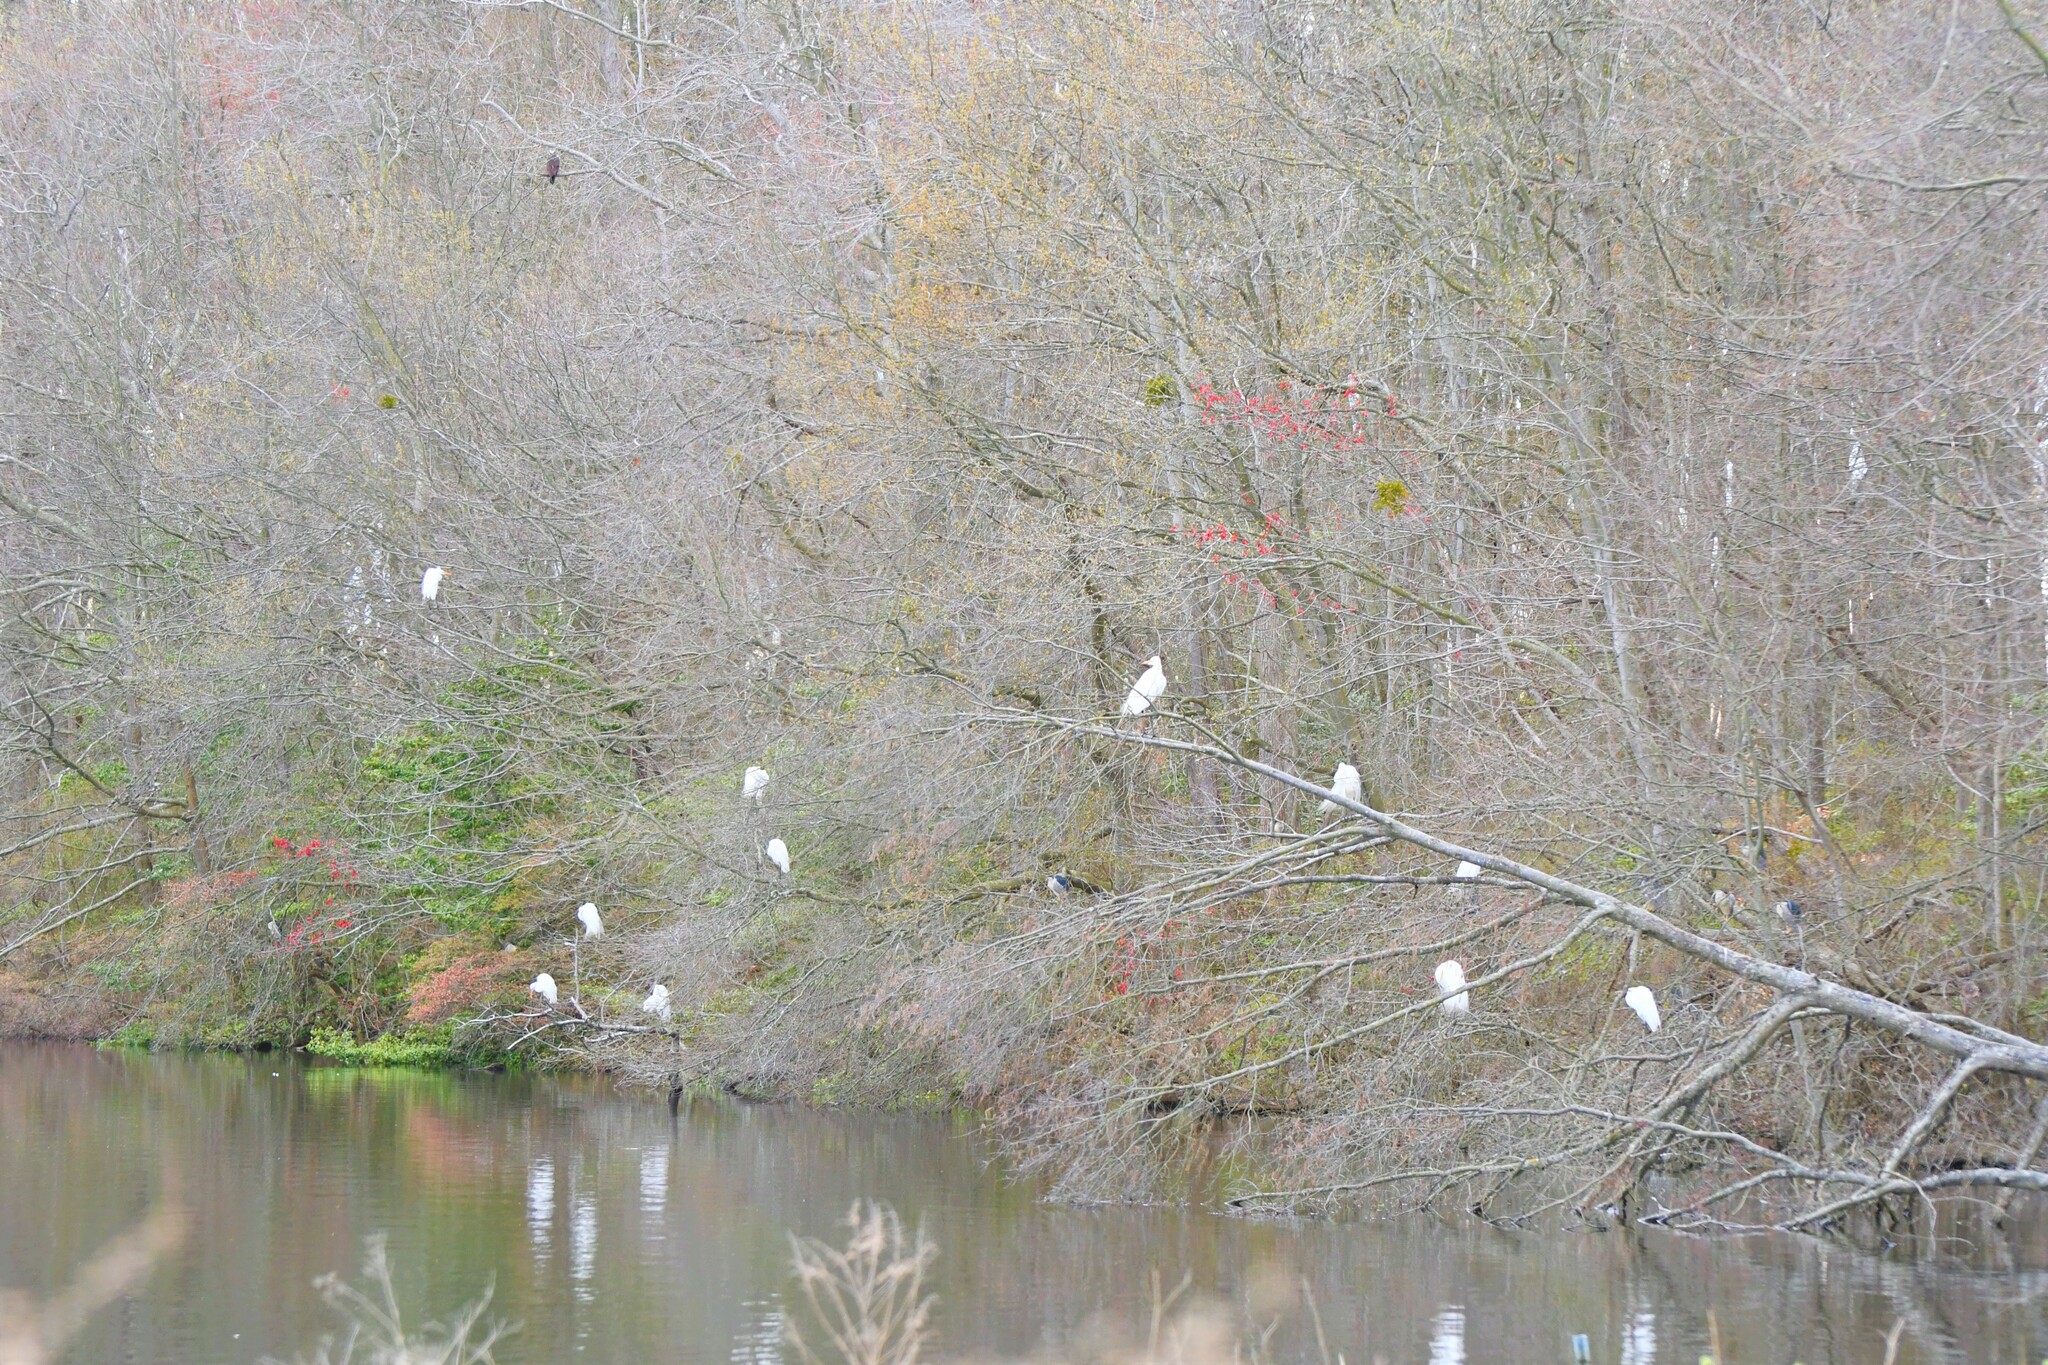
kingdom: Animalia
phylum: Chordata
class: Aves
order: Pelecaniformes
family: Ardeidae
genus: Ardea
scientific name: Ardea alba
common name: Great egret
